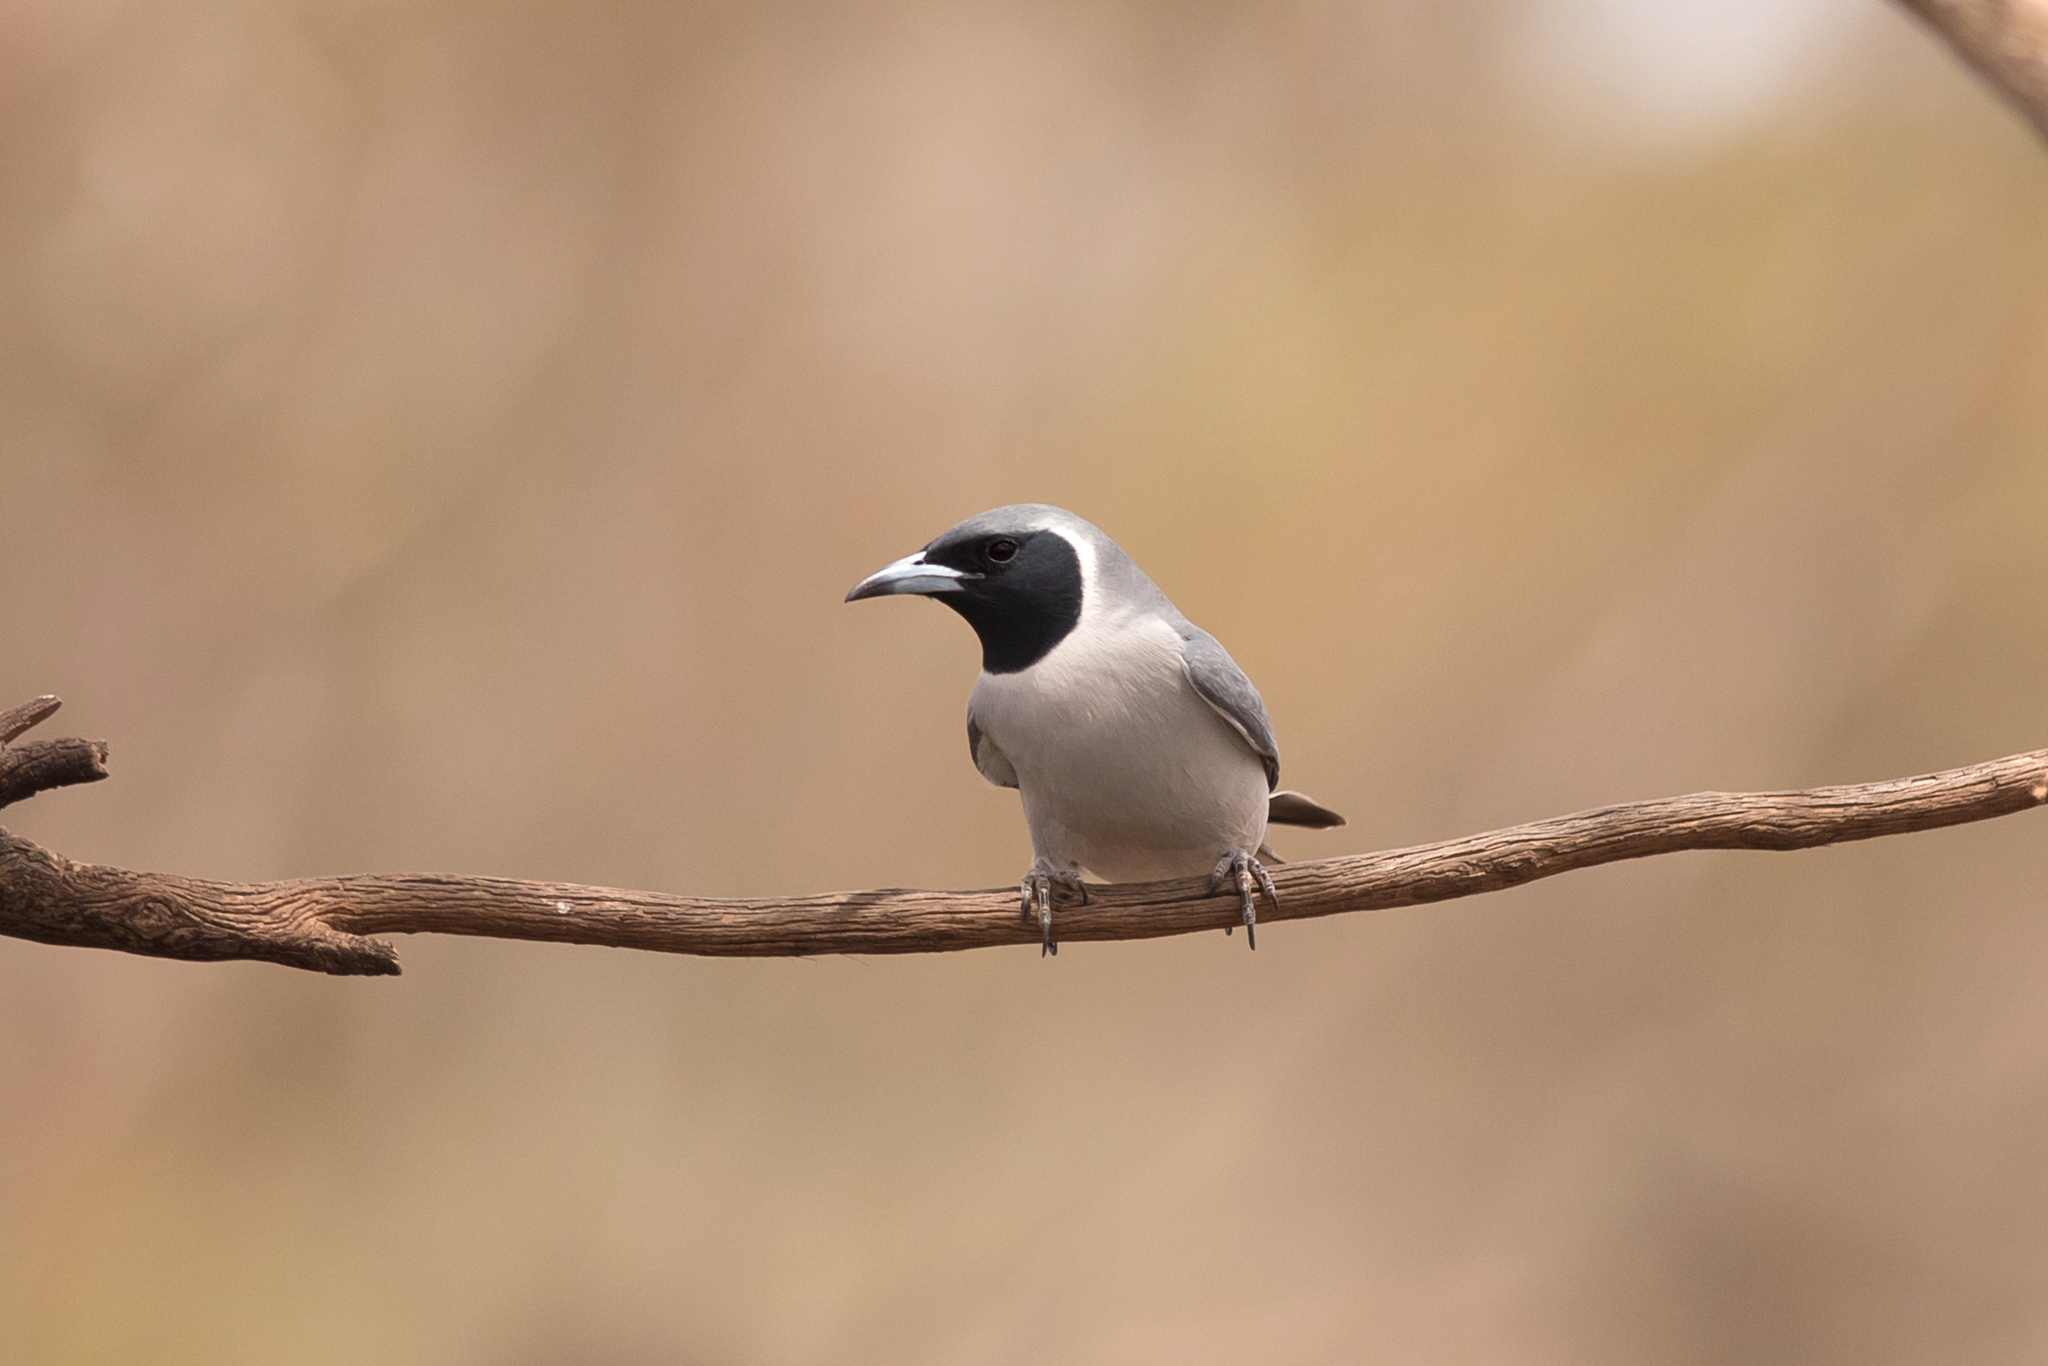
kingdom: Animalia
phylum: Chordata
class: Aves
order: Passeriformes
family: Artamidae
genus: Artamus
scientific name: Artamus personatus
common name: Masked woodswallow
